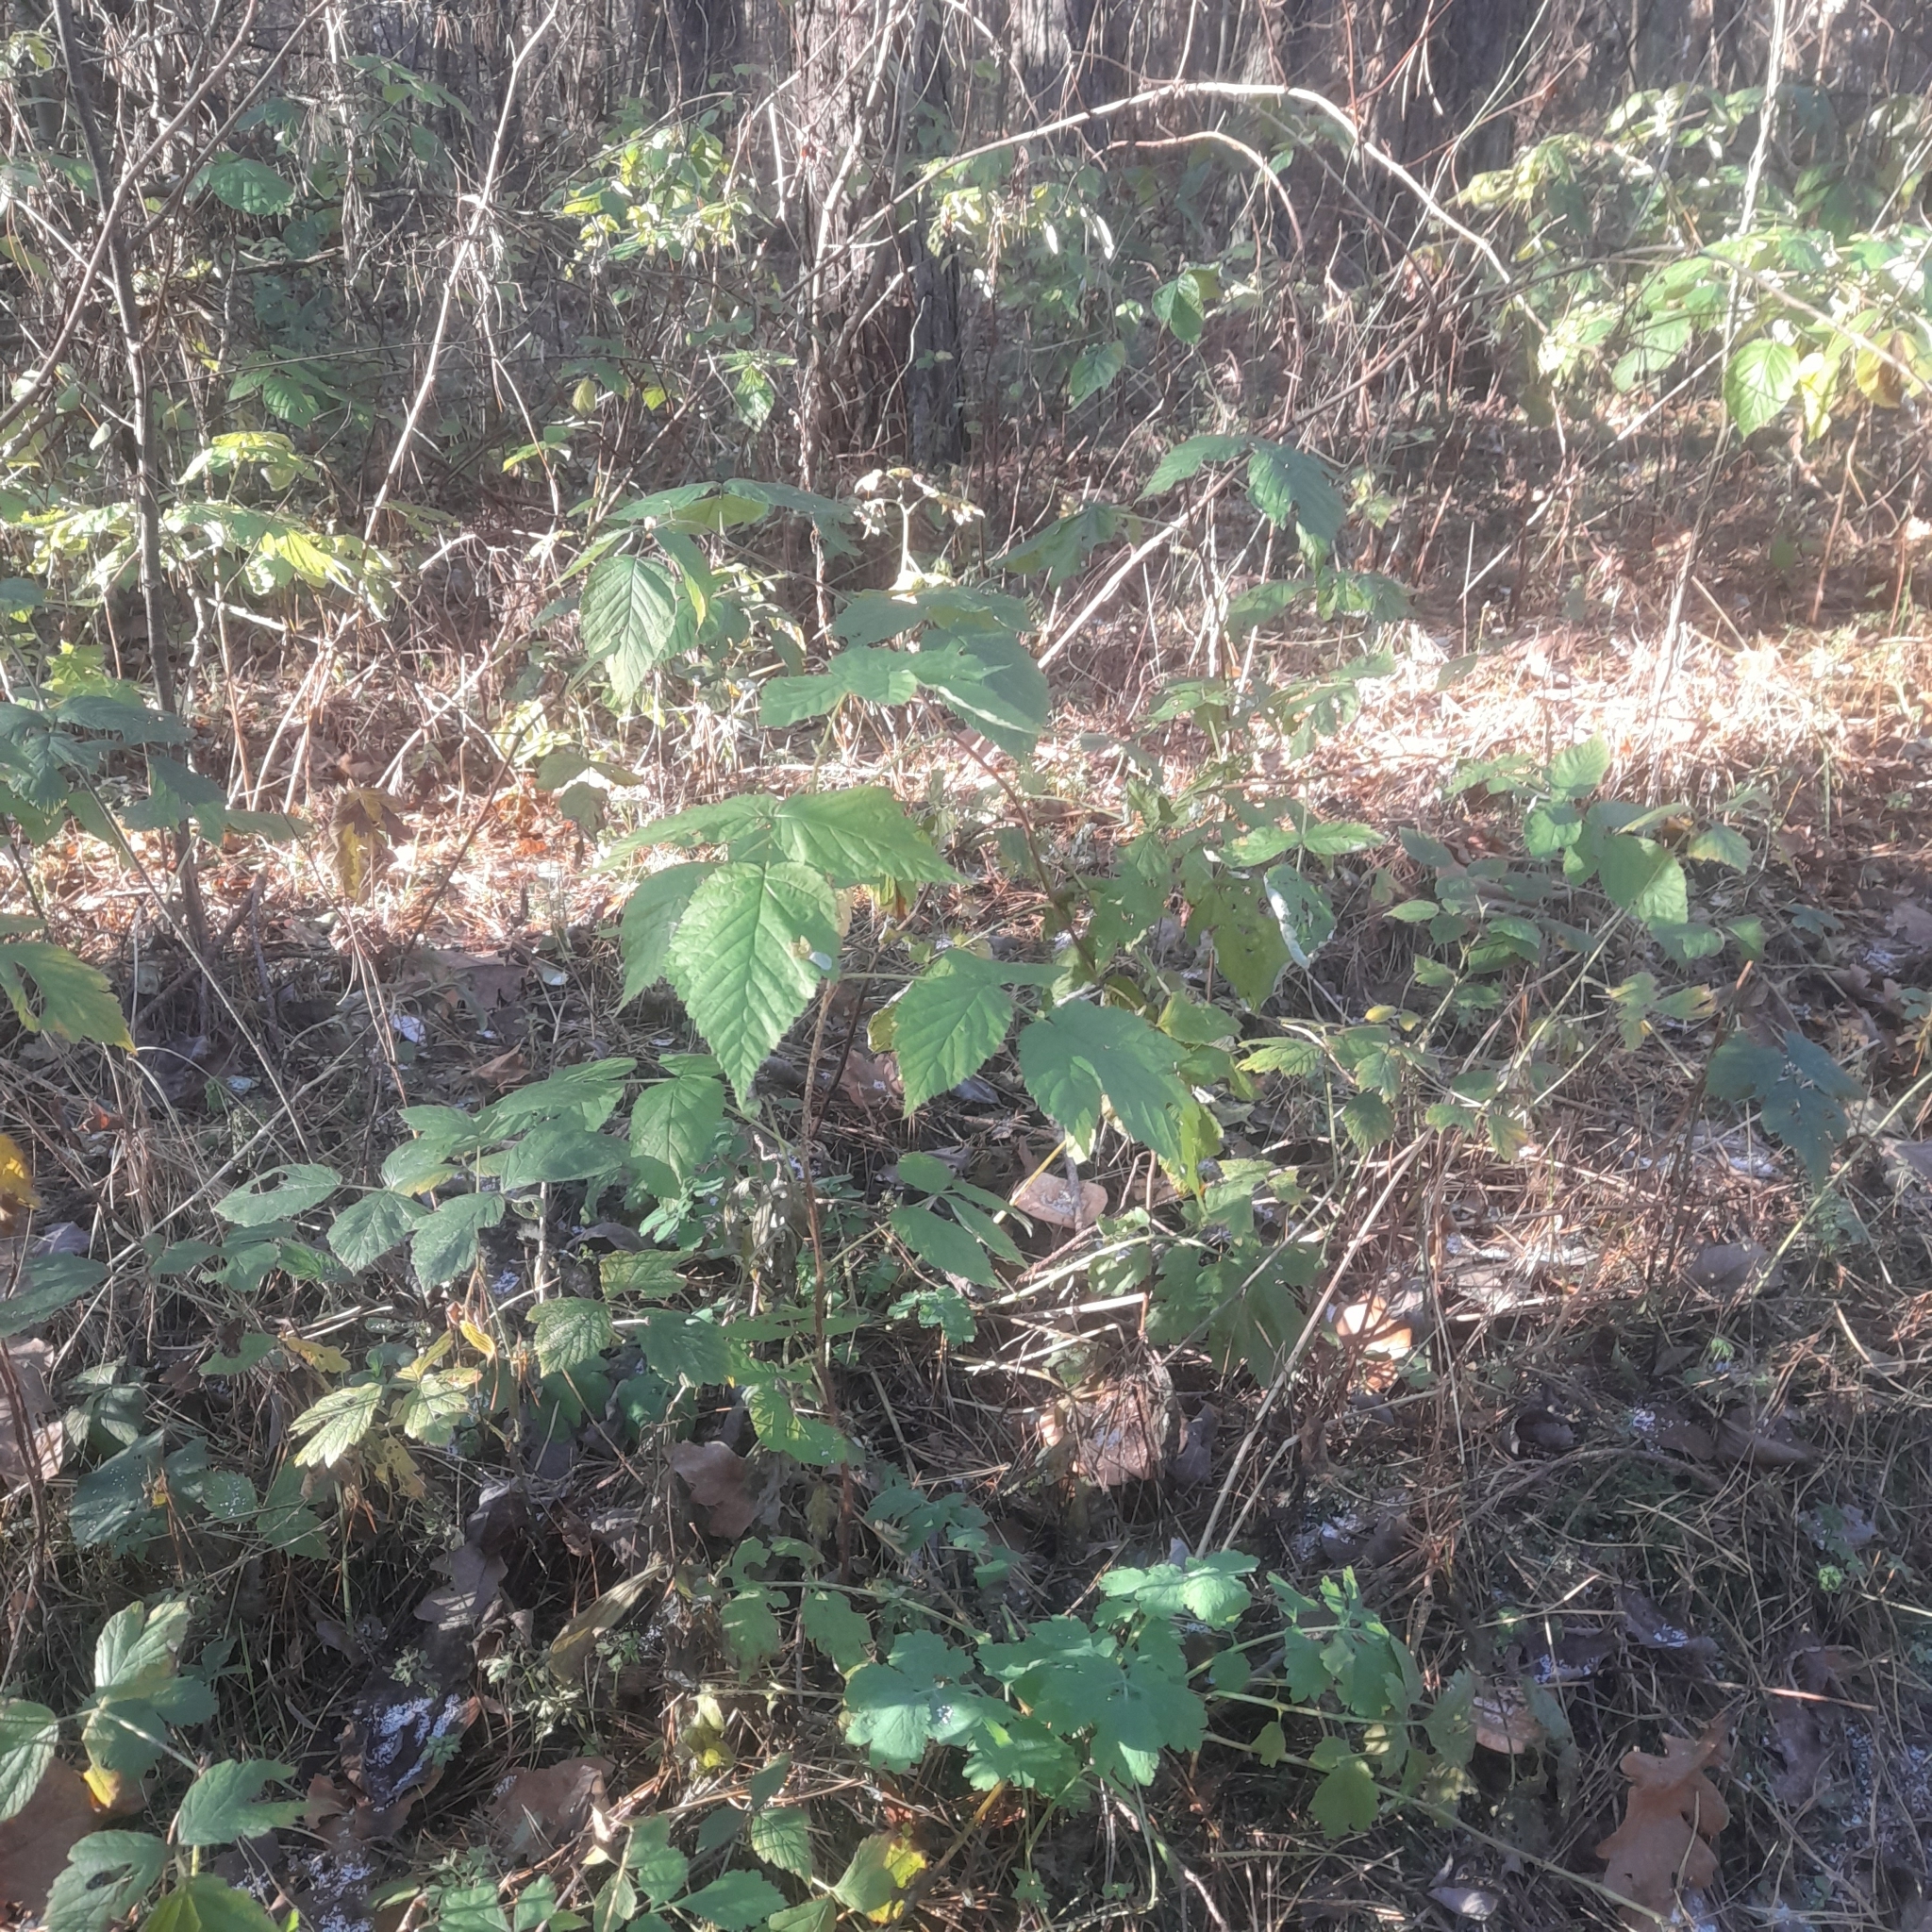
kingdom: Plantae
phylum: Tracheophyta
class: Magnoliopsida
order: Rosales
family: Rosaceae
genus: Rubus
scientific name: Rubus idaeus
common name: Raspberry
